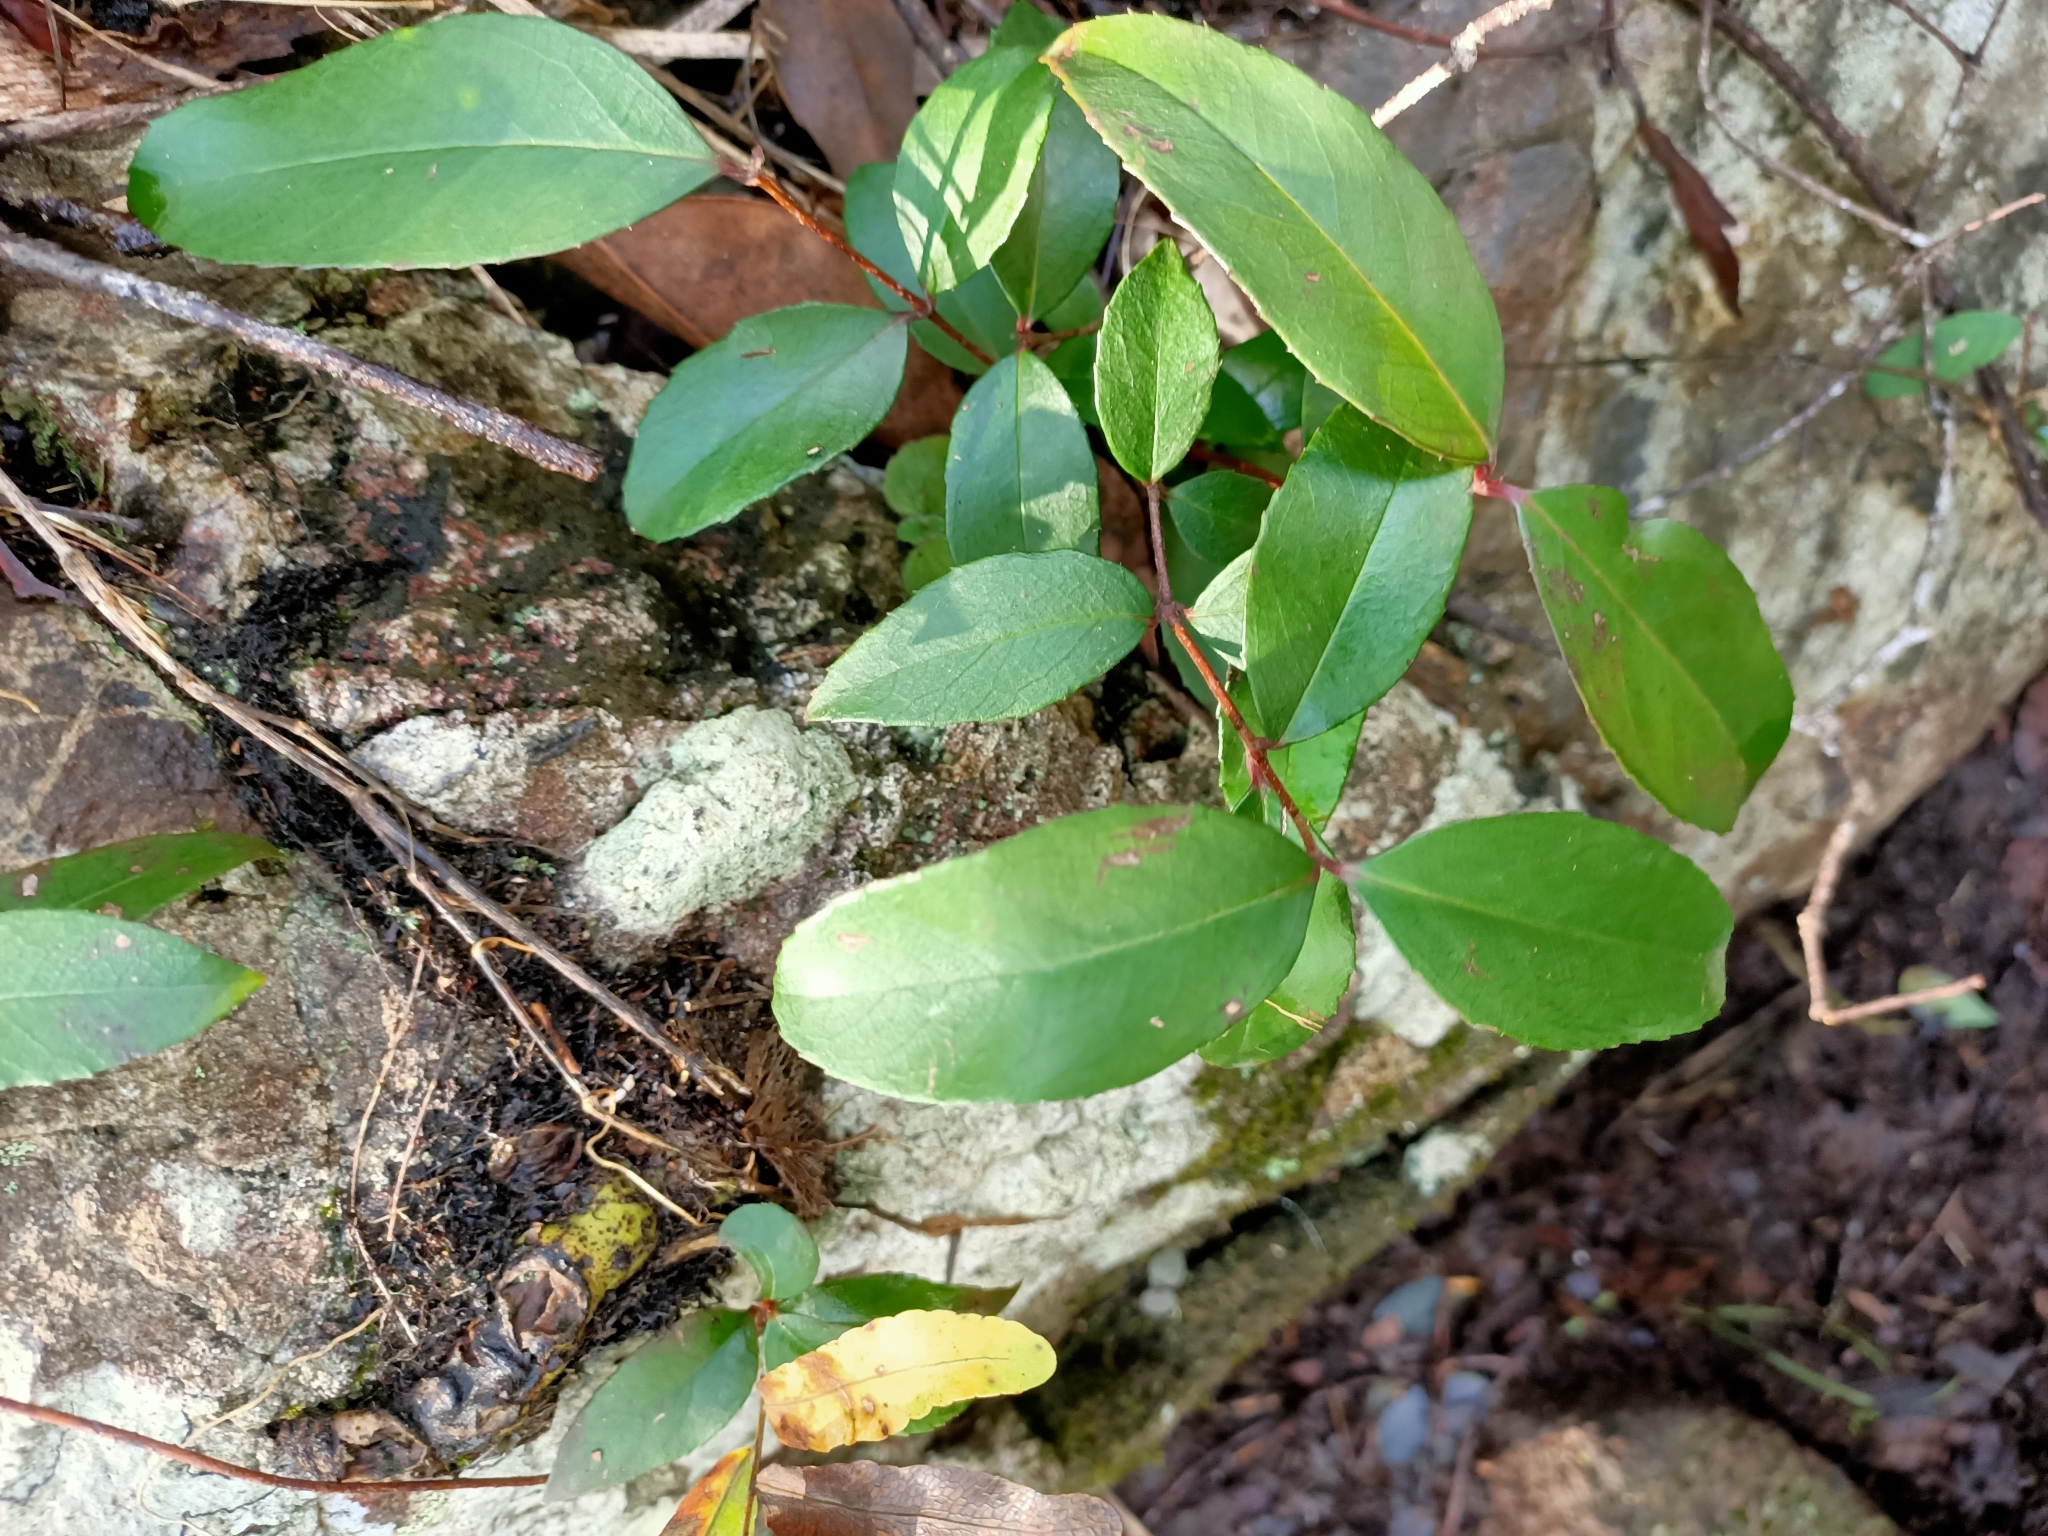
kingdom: Plantae
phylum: Tracheophyta
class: Magnoliopsida
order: Saxifragales
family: Aphanopetalaceae
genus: Aphanopetalum
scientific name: Aphanopetalum resinosum
